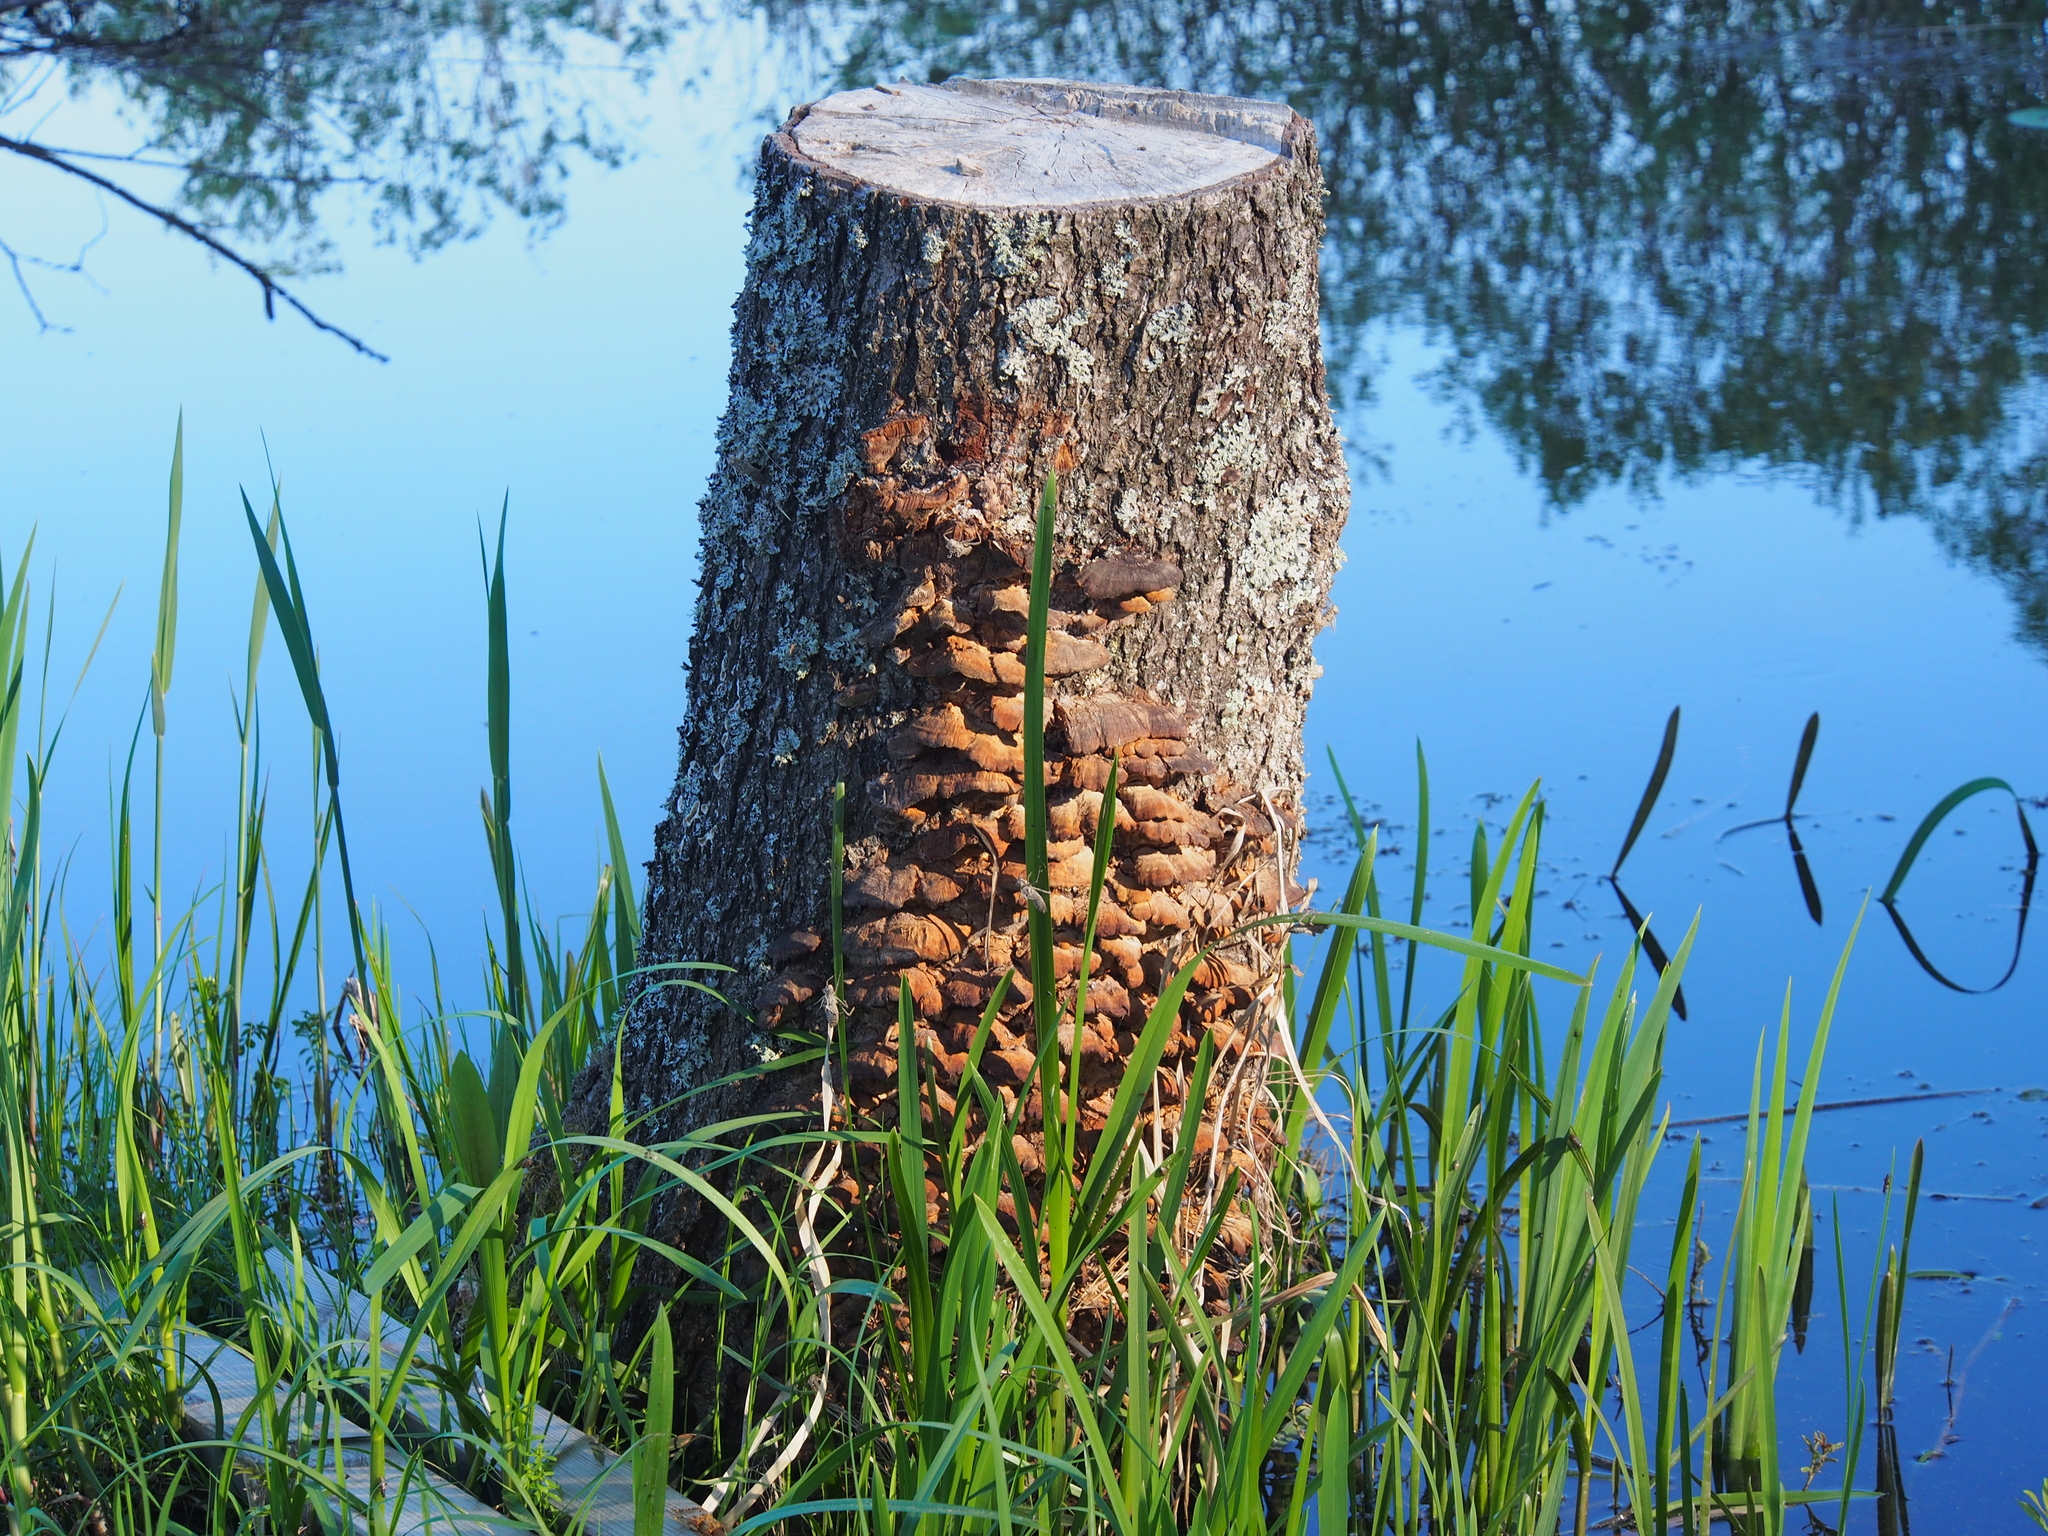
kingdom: Fungi
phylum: Basidiomycota
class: Agaricomycetes
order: Hymenochaetales
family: Hymenochaetaceae
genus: Xanthoporia
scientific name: Xanthoporia radiata
